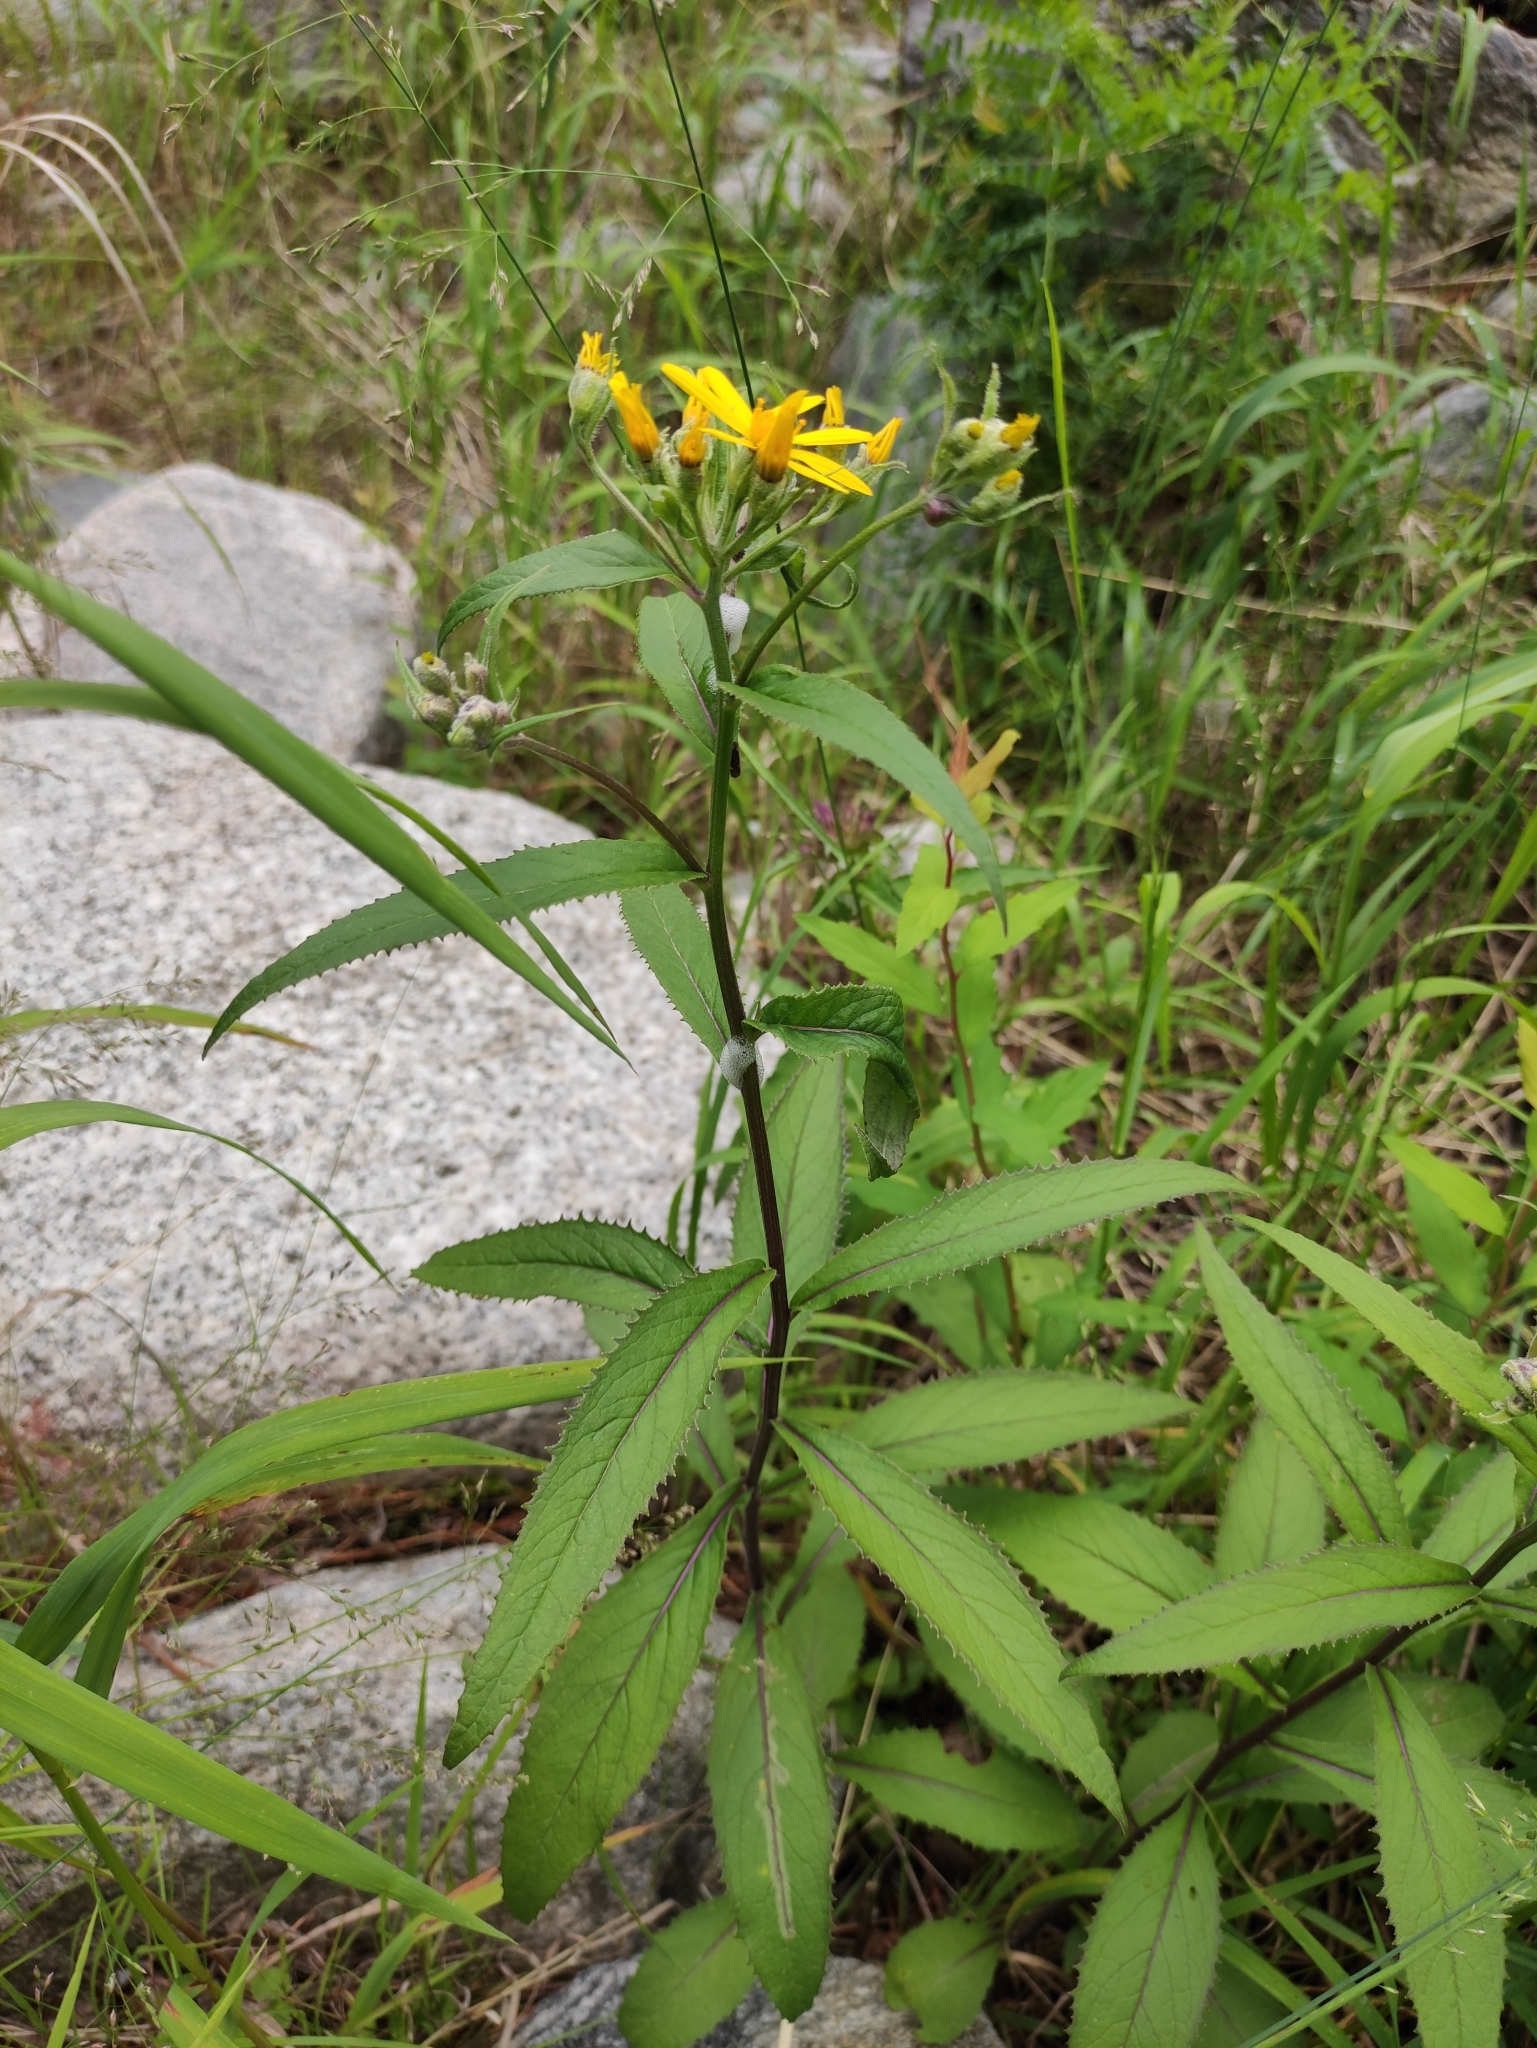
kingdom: Plantae
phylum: Tracheophyta
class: Magnoliopsida
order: Asterales
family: Asteraceae
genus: Senecio
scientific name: Senecio nemorensis
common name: Alpine ragwort
